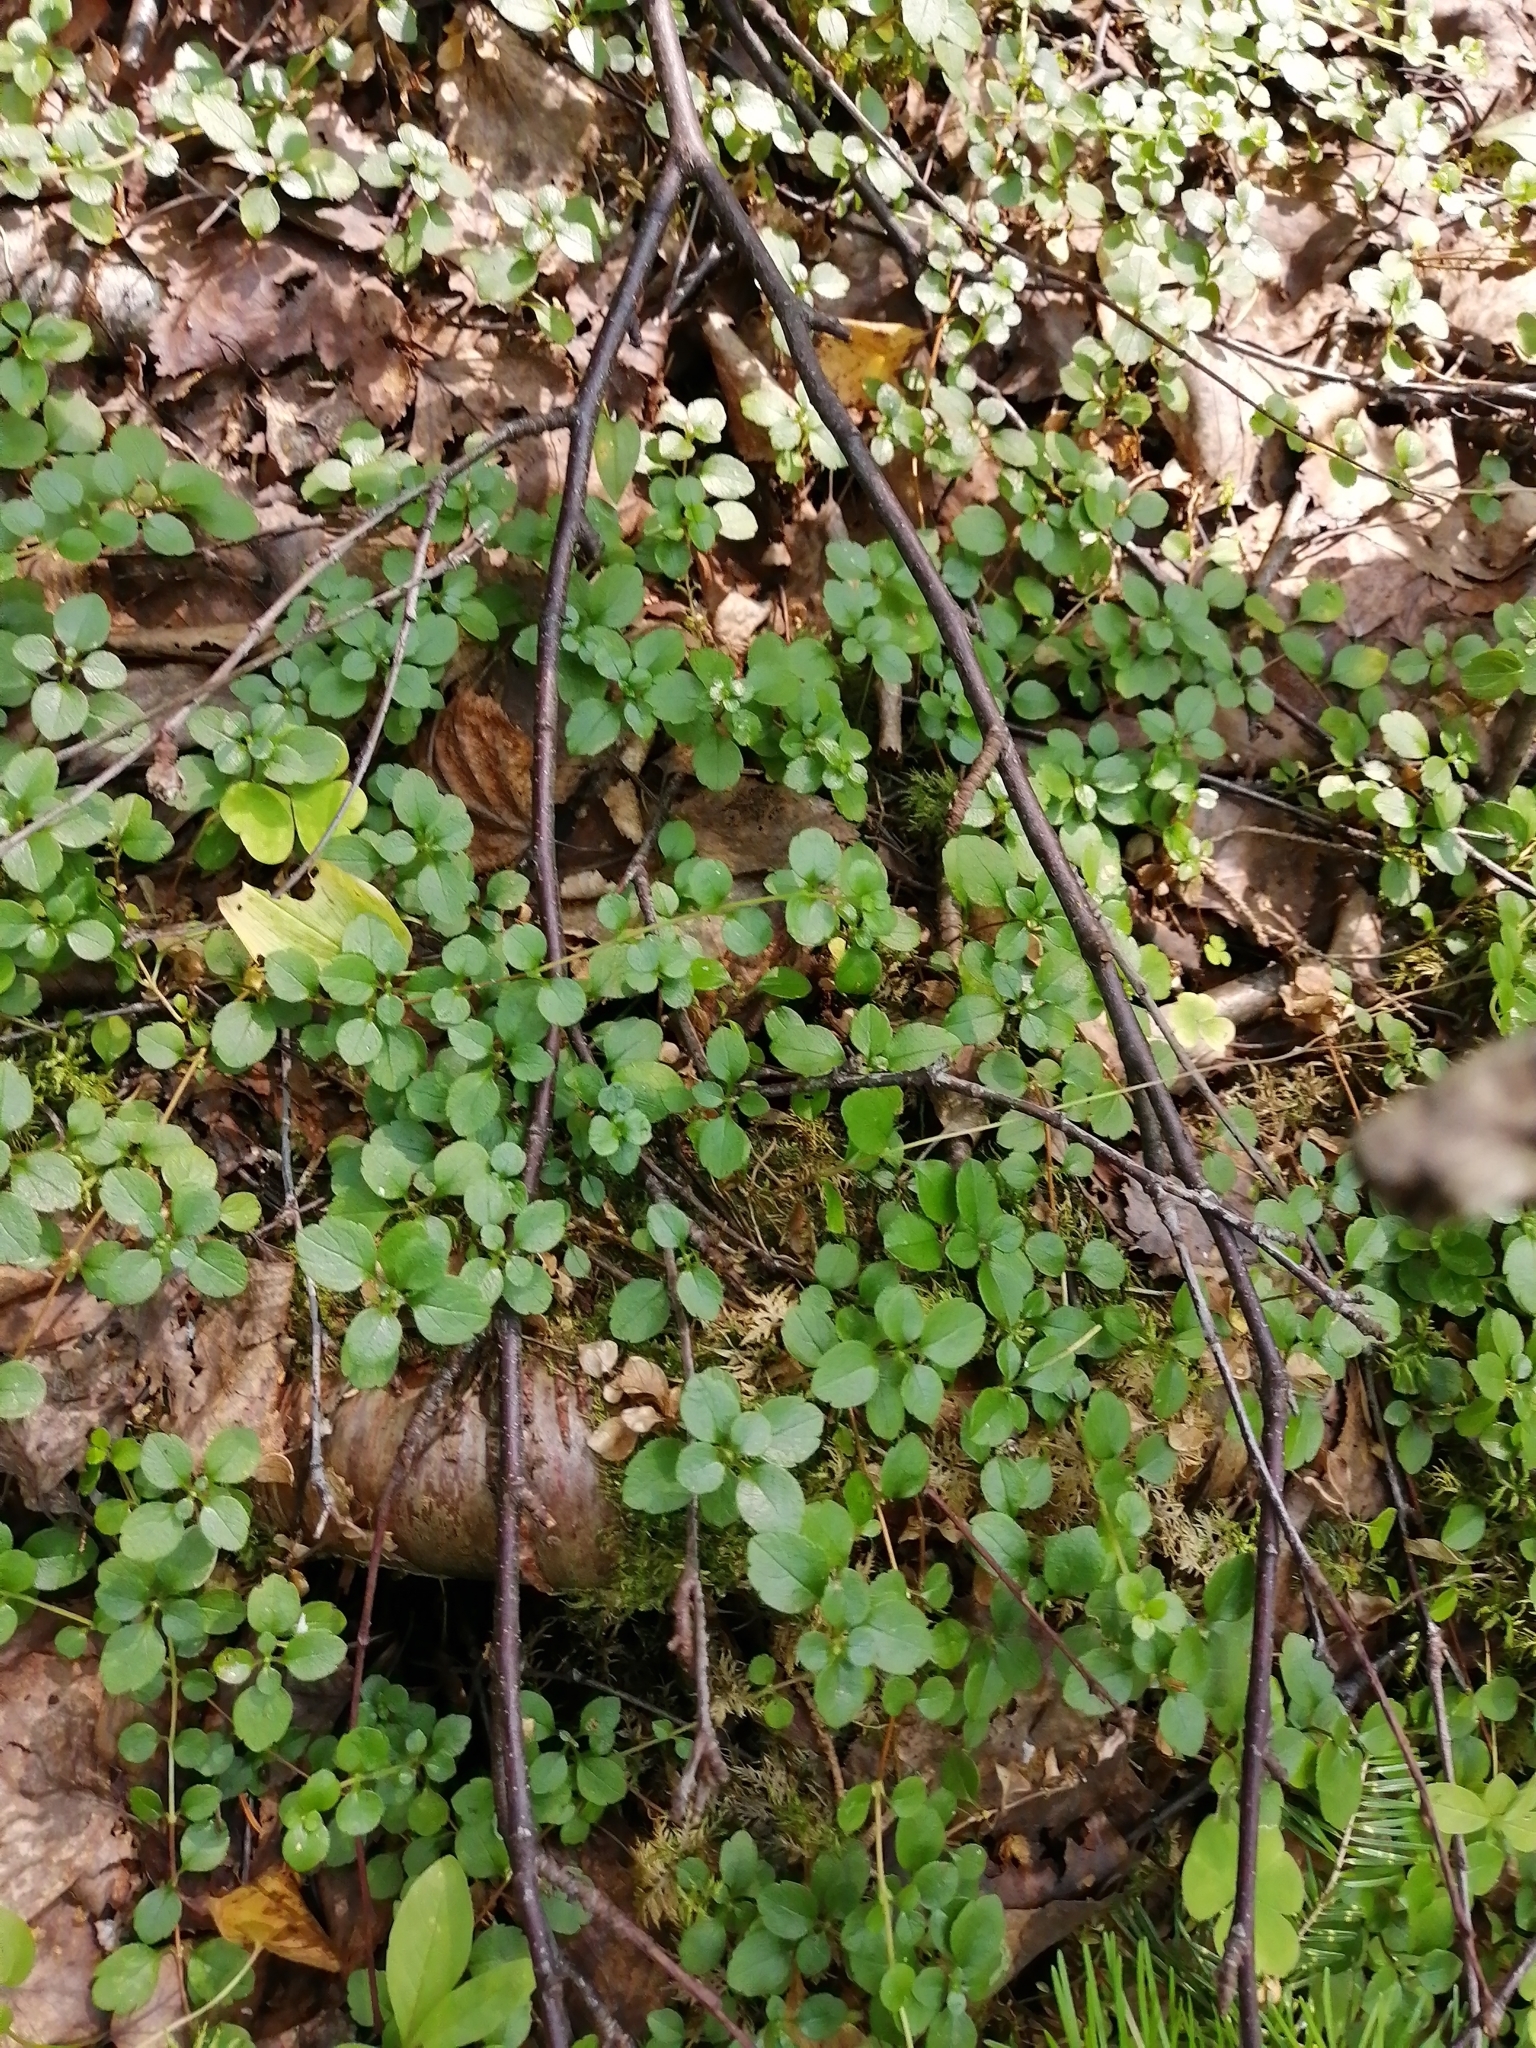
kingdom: Plantae
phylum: Tracheophyta
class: Magnoliopsida
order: Dipsacales
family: Caprifoliaceae
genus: Linnaea
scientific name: Linnaea borealis
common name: Twinflower
